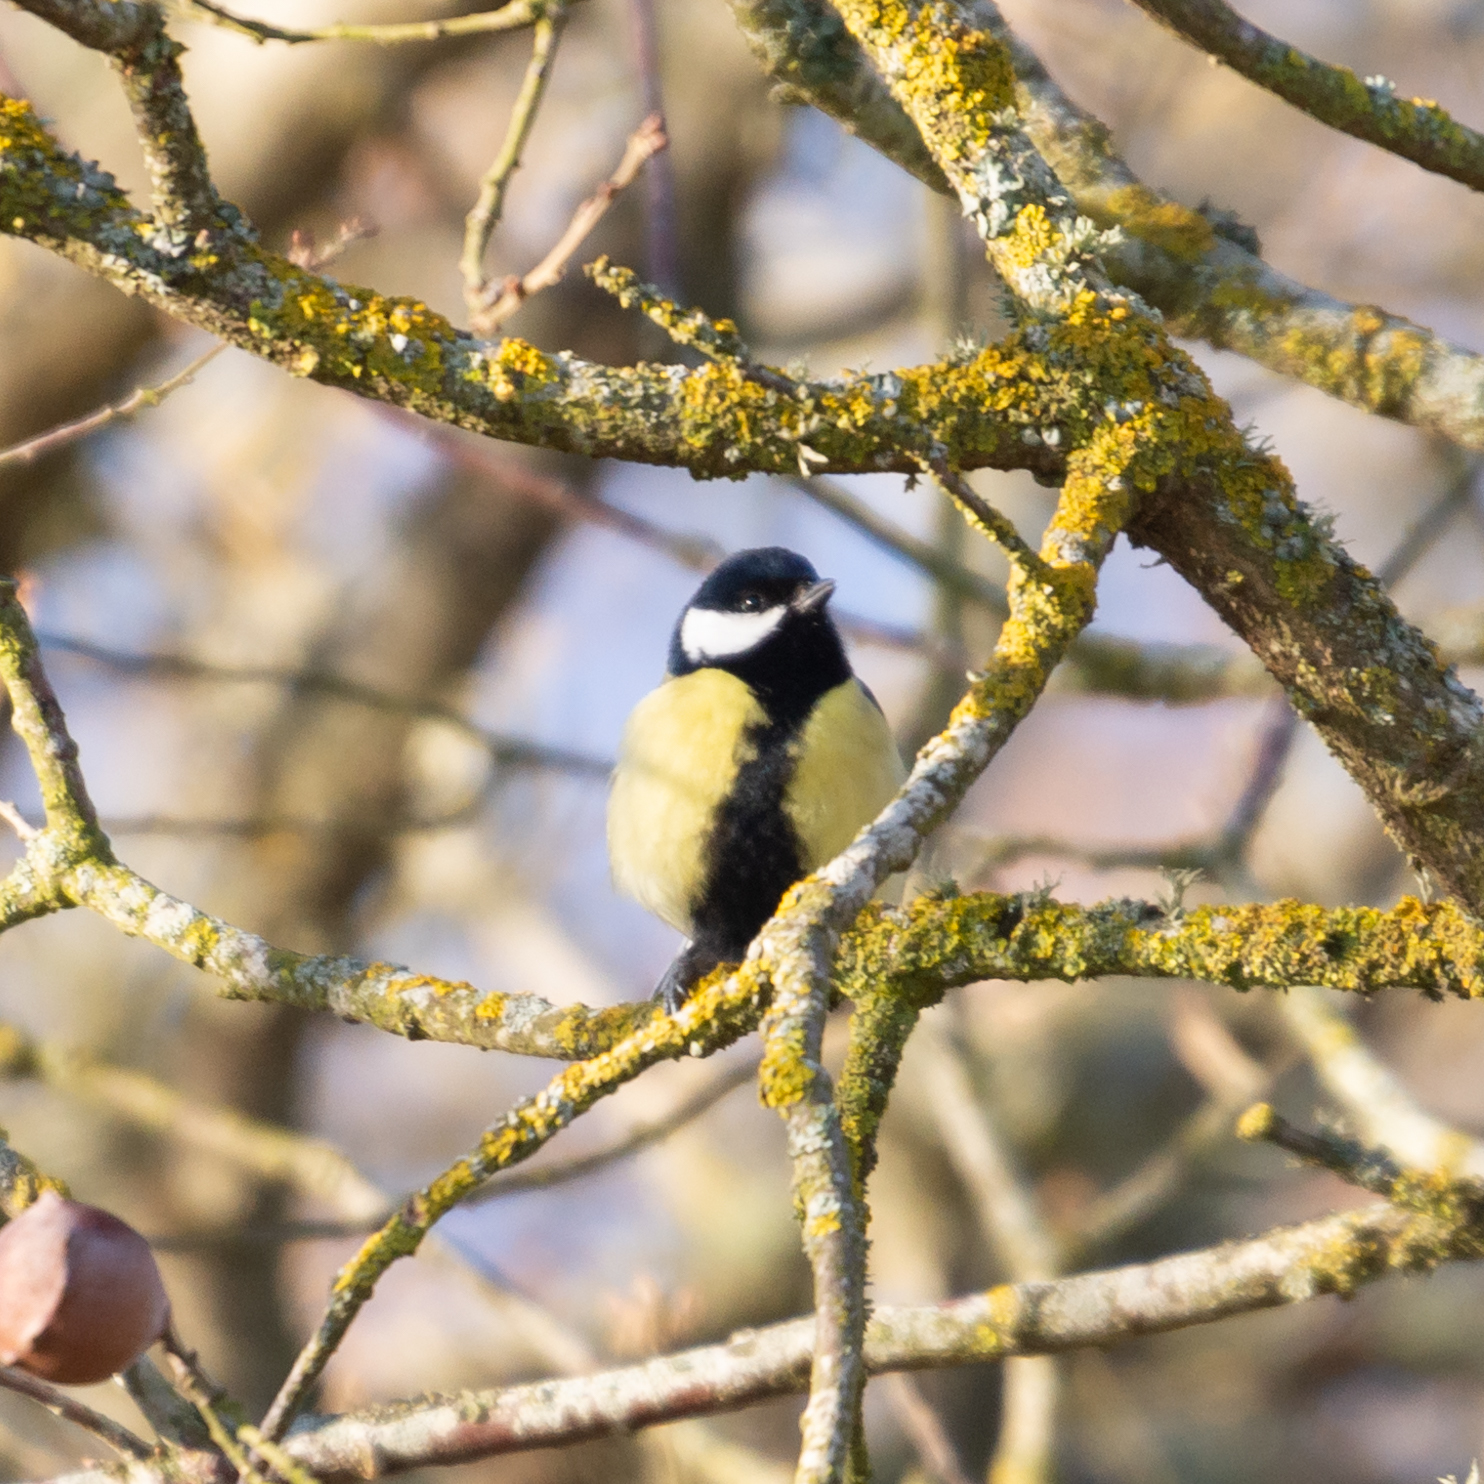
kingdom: Animalia
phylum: Chordata
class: Aves
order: Passeriformes
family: Paridae
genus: Parus
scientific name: Parus major
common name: Great tit
